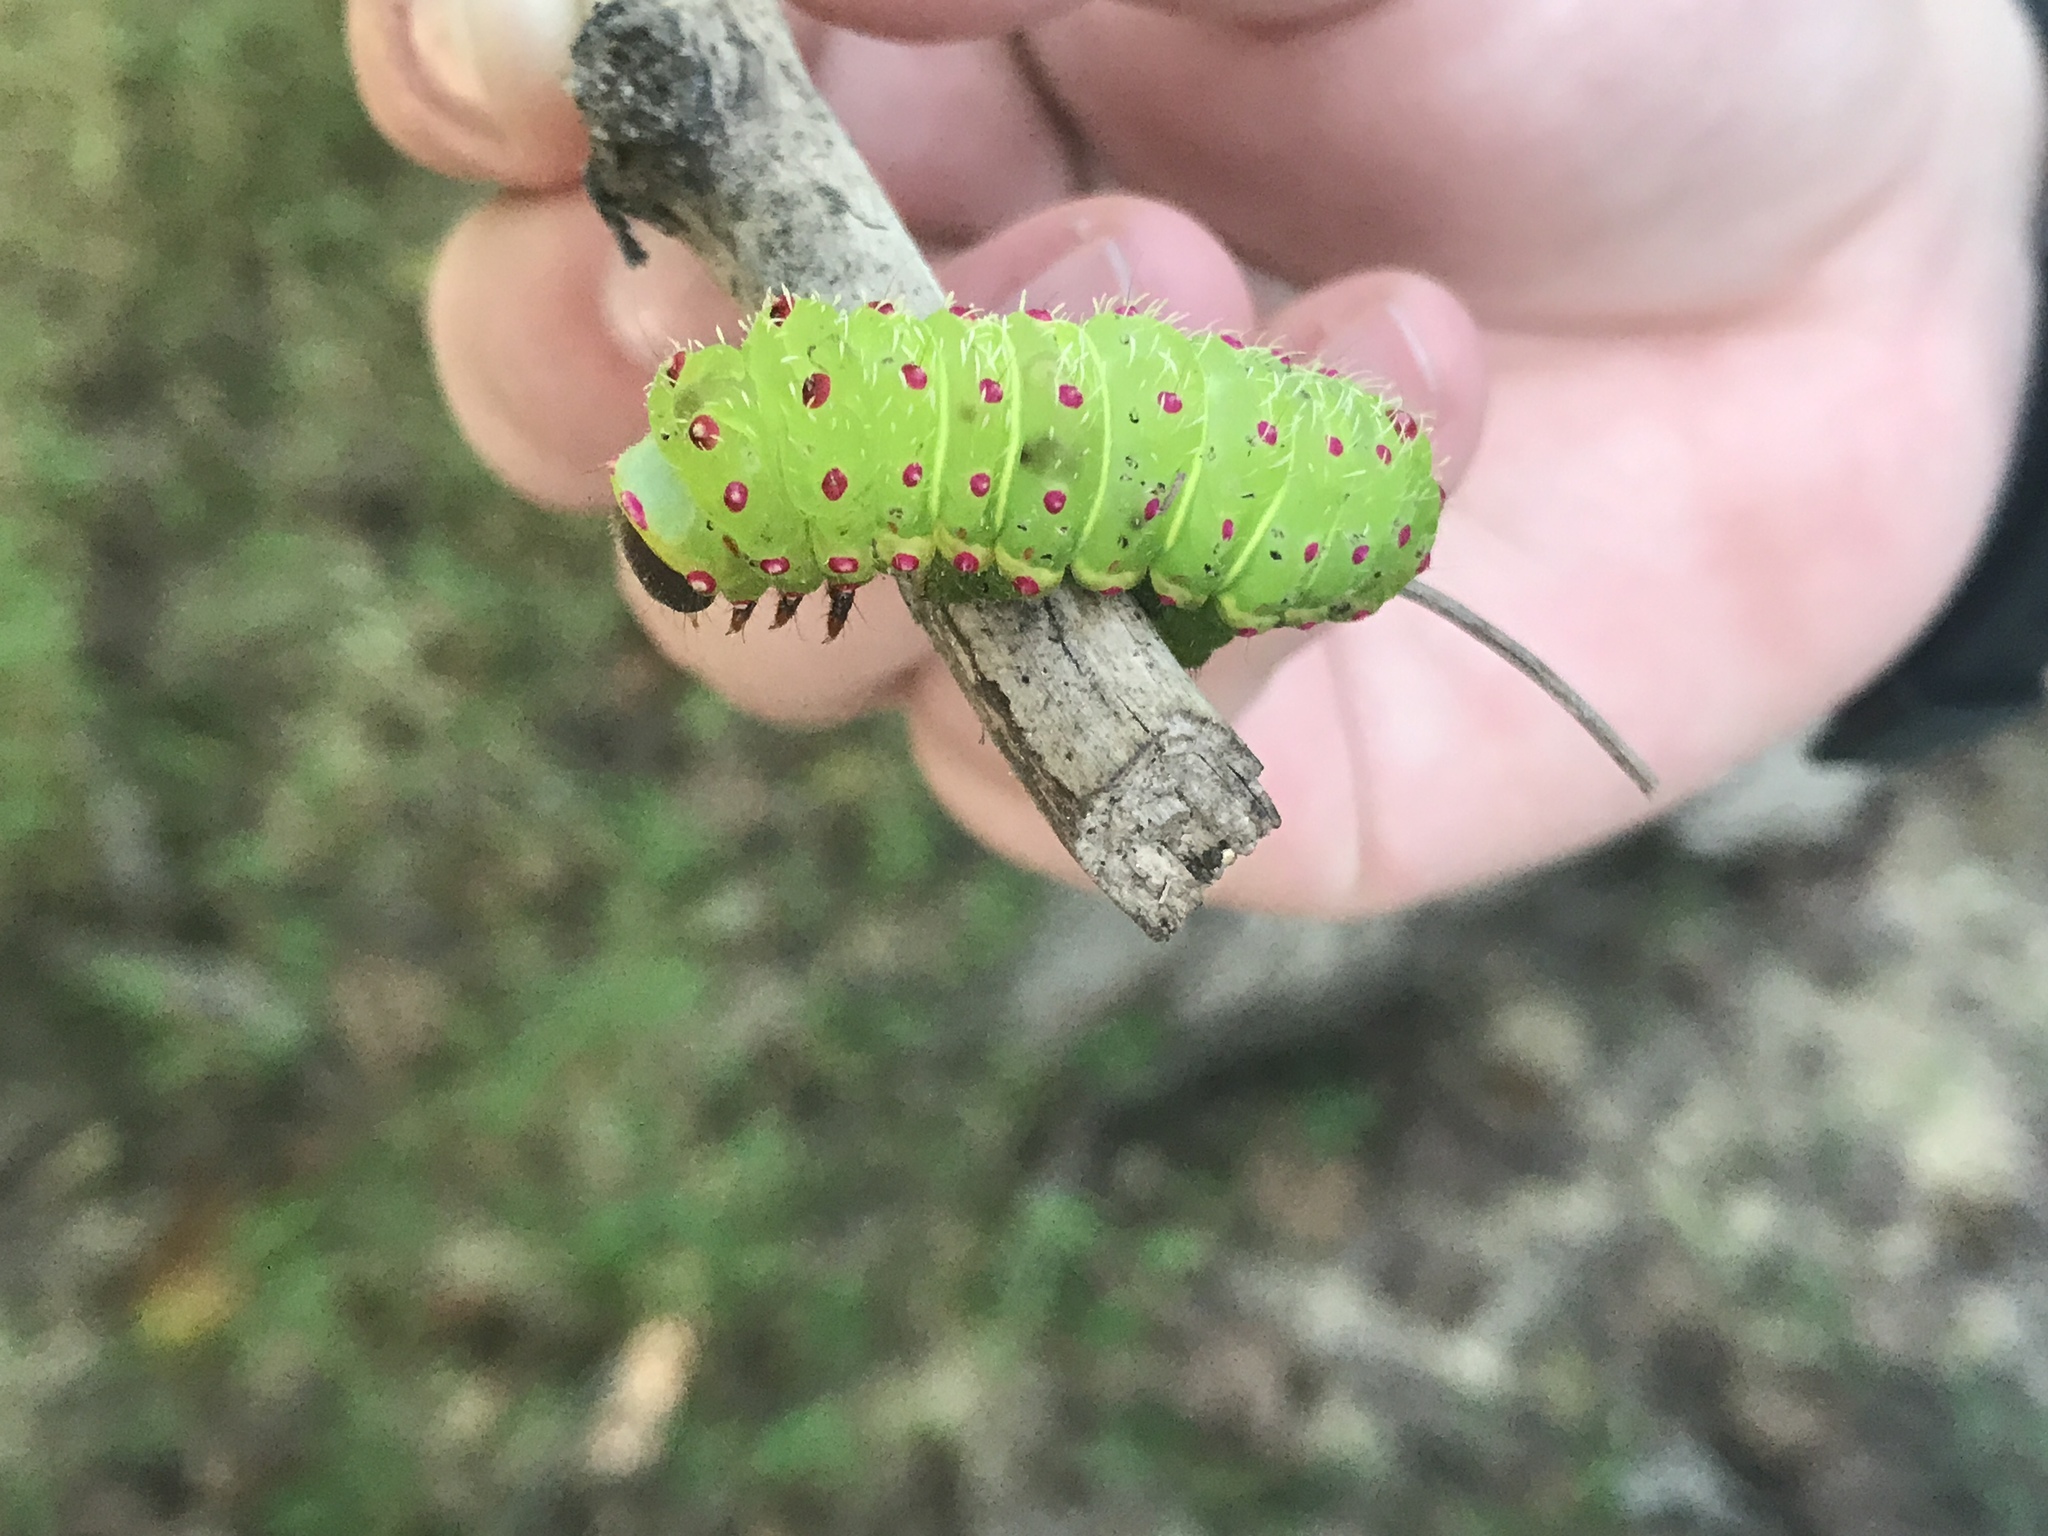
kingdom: Animalia
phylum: Arthropoda
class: Insecta
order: Lepidoptera
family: Saturniidae
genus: Antheraea
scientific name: Antheraea polyphemus
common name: Polyphemus moth
